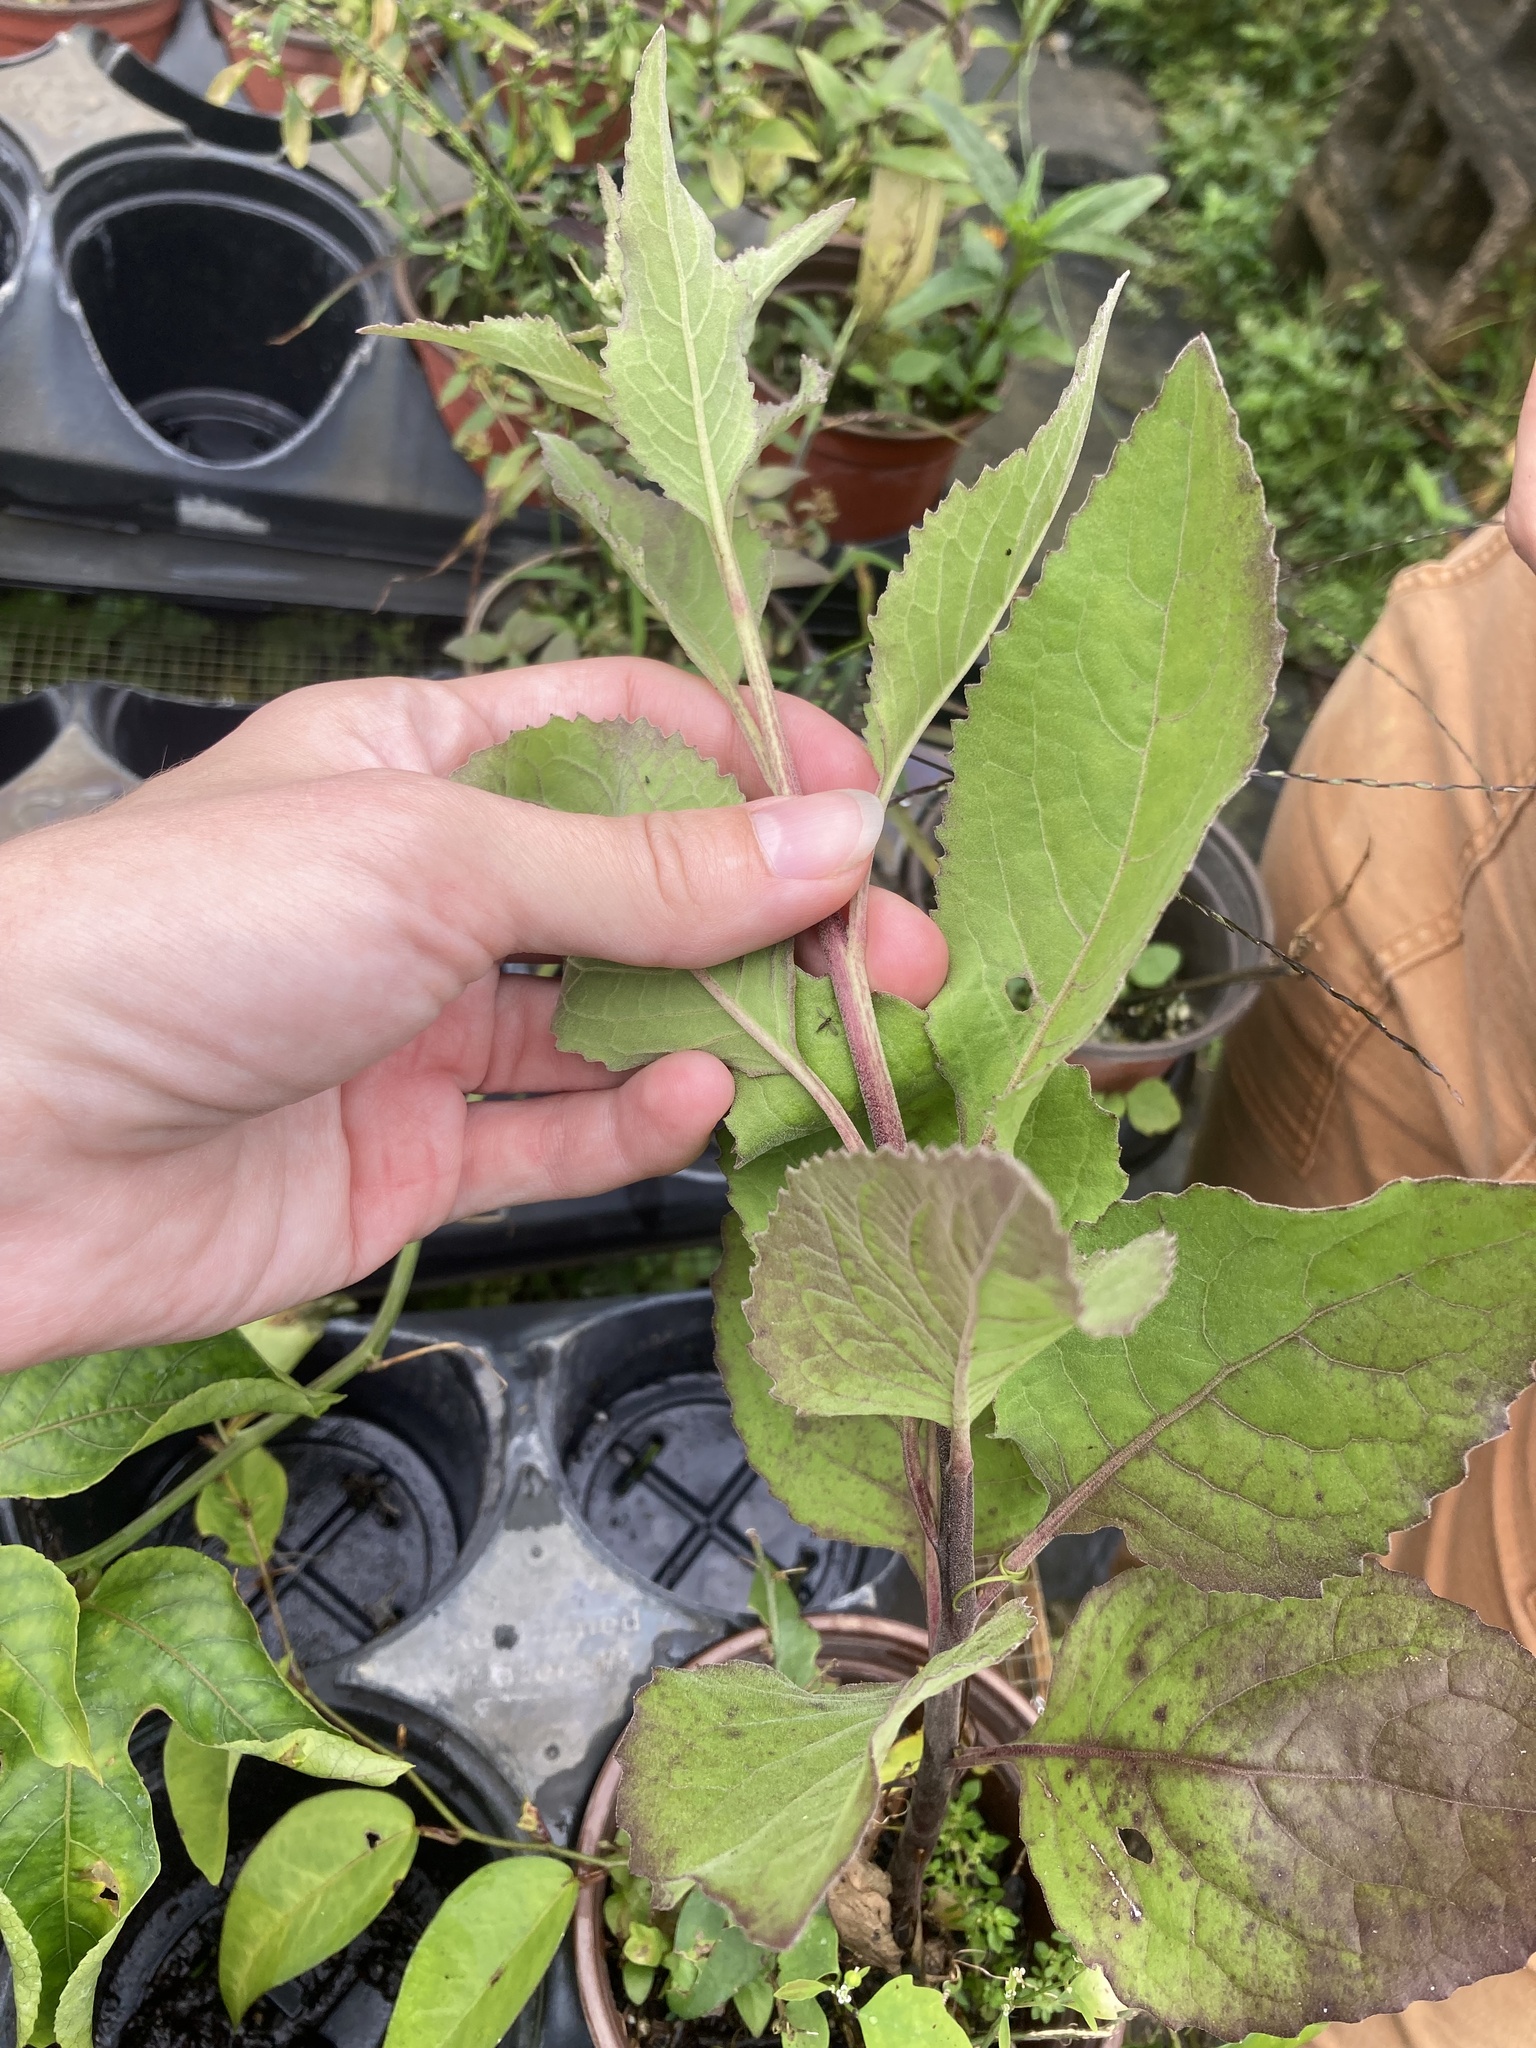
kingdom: Plantae
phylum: Tracheophyta
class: Magnoliopsida
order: Asterales
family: Asteraceae
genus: Pluchea
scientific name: Pluchea odorata
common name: Saltmarsh fleabane
